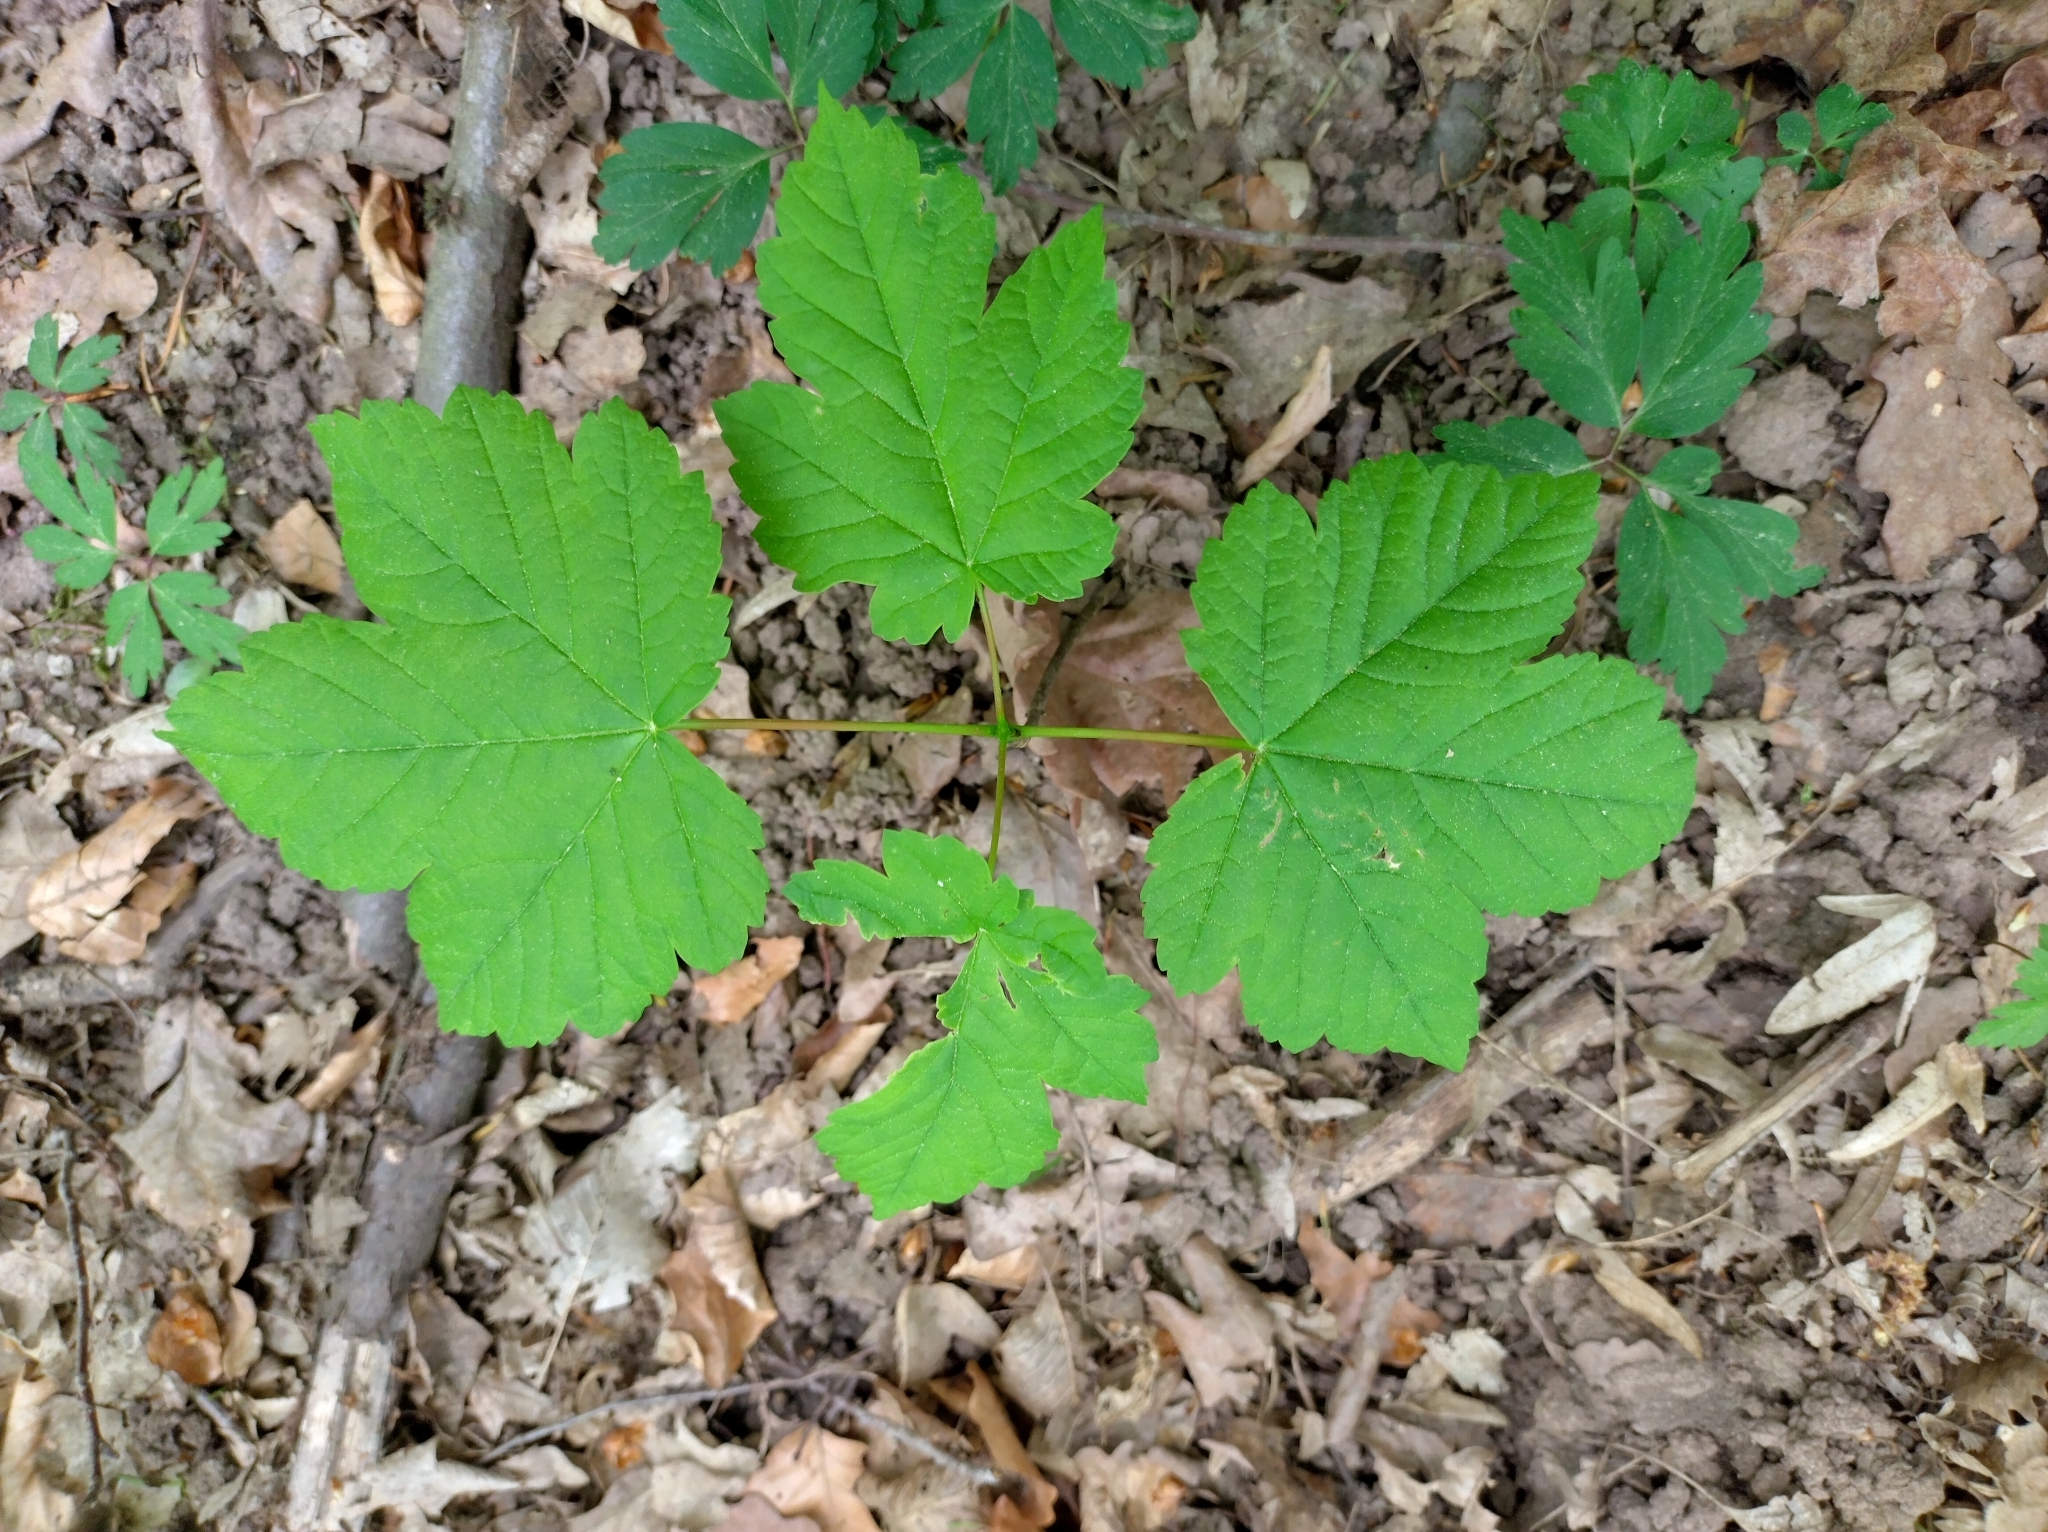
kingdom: Plantae
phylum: Tracheophyta
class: Magnoliopsida
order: Sapindales
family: Sapindaceae
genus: Acer
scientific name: Acer pseudoplatanus
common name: Sycamore
